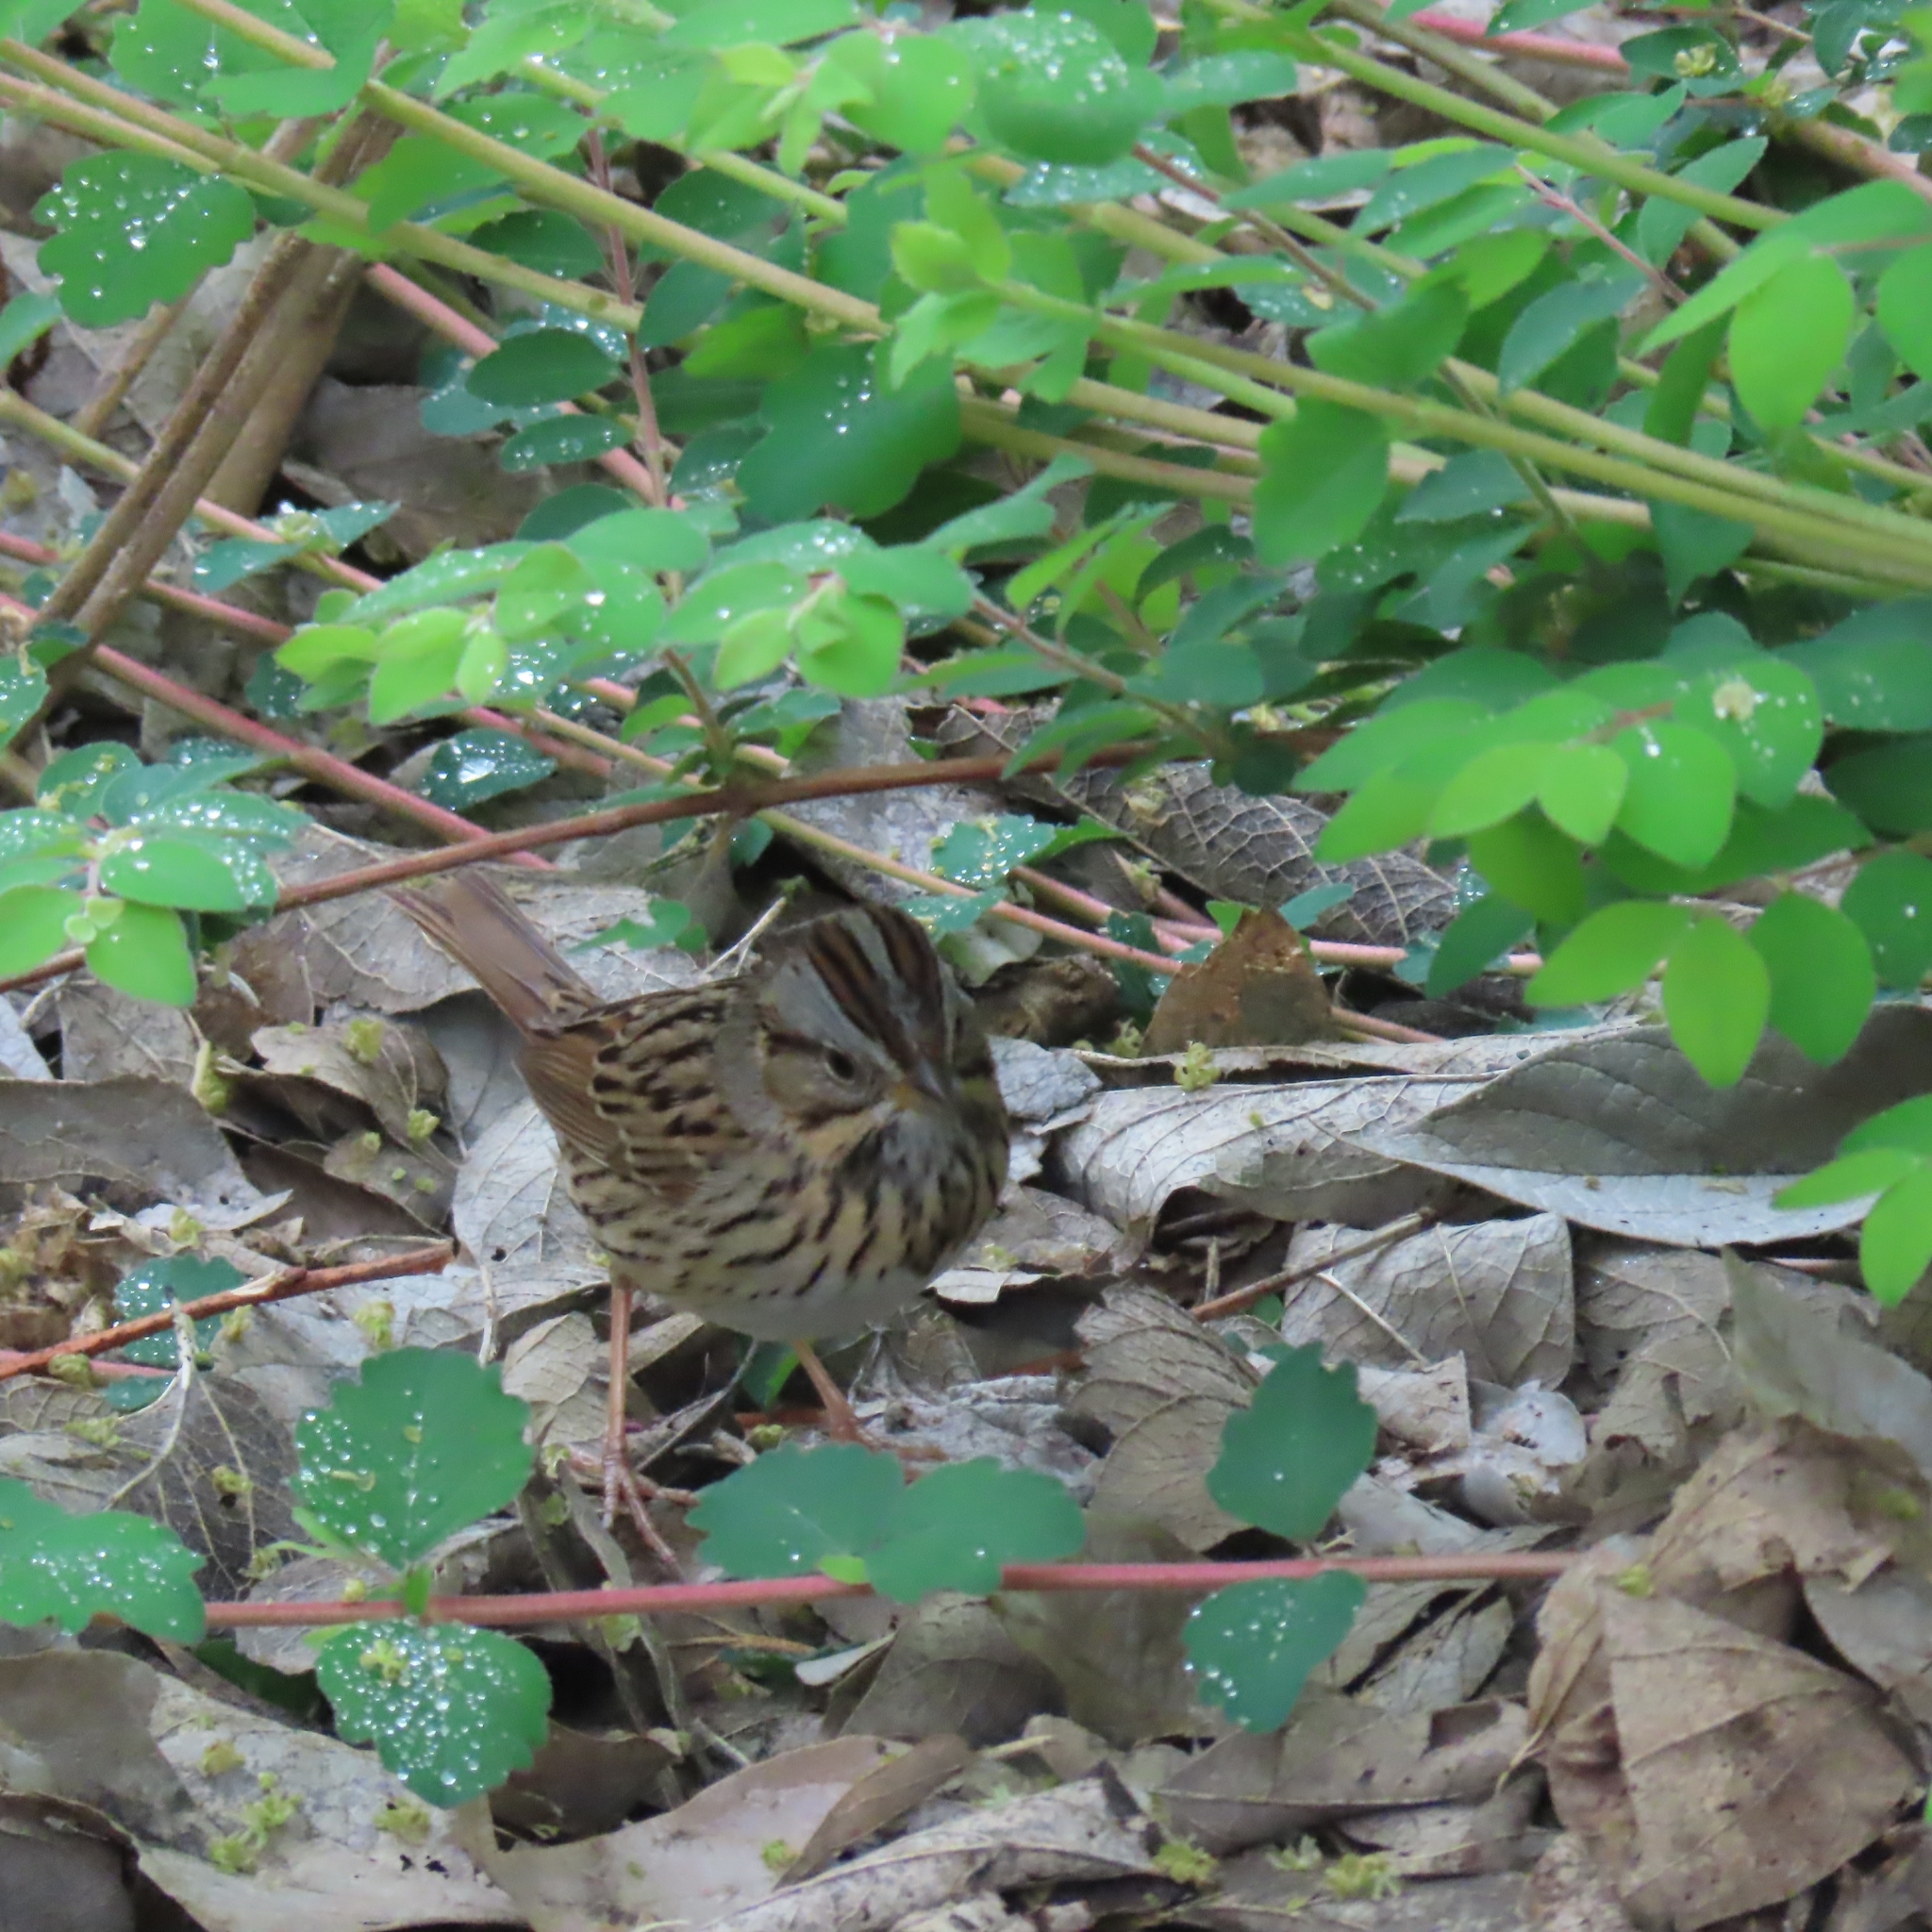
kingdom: Animalia
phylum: Chordata
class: Aves
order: Passeriformes
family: Passerellidae
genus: Melospiza
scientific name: Melospiza lincolnii
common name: Lincoln's sparrow
